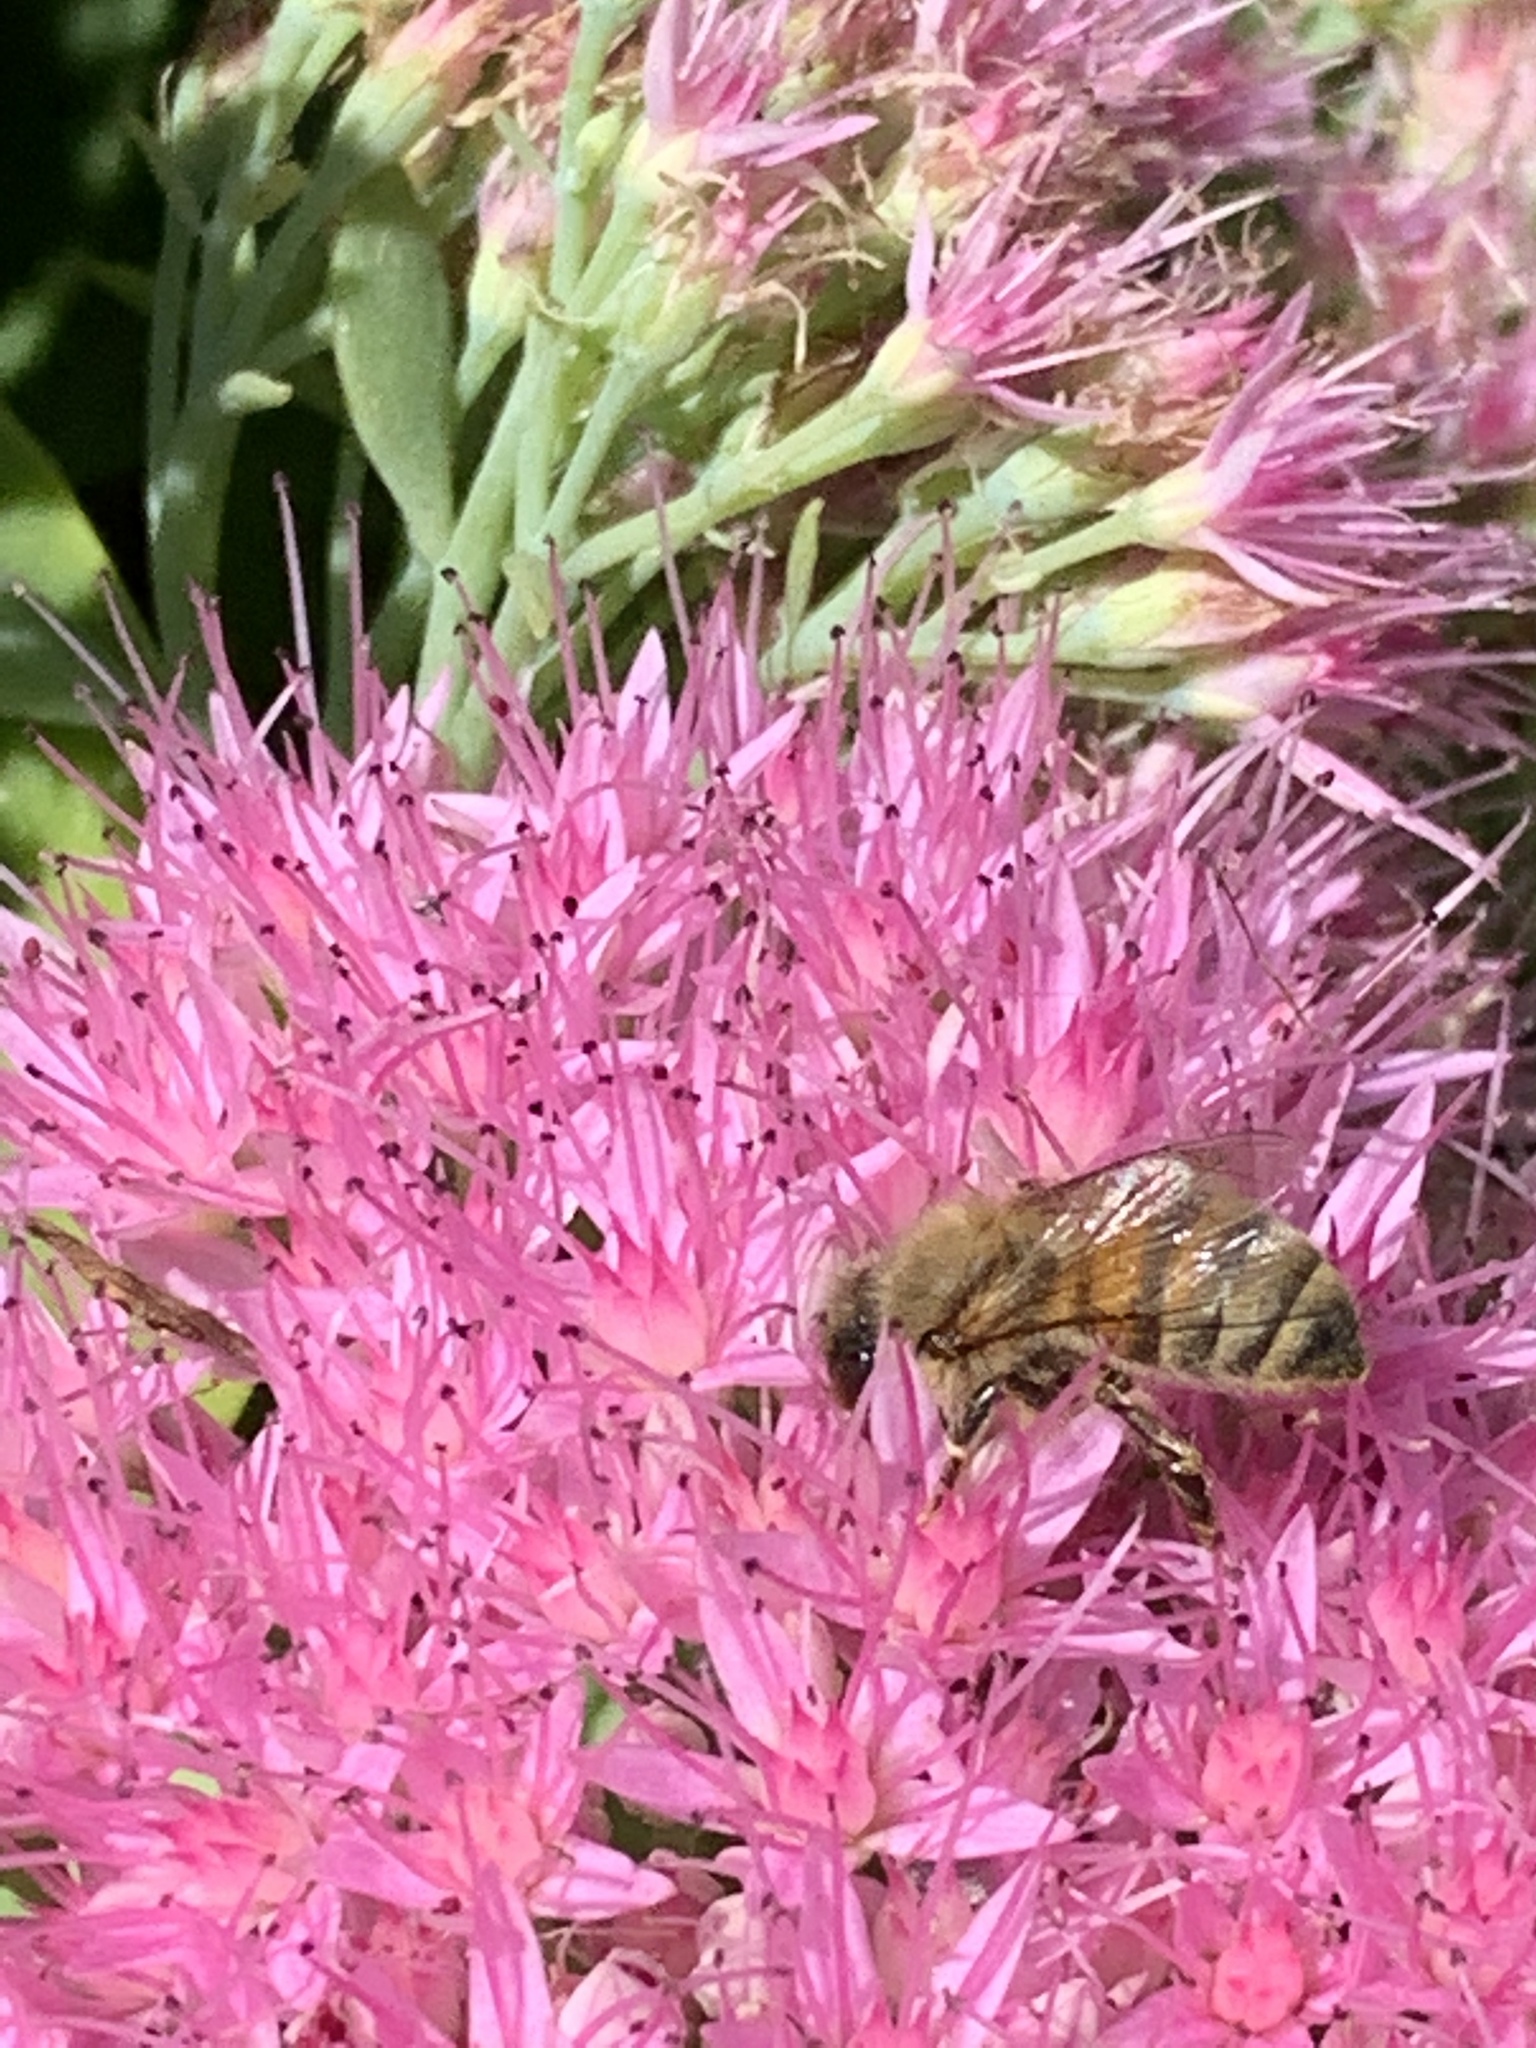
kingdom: Animalia
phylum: Arthropoda
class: Insecta
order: Hymenoptera
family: Apidae
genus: Apis
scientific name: Apis mellifera
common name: Honey bee
